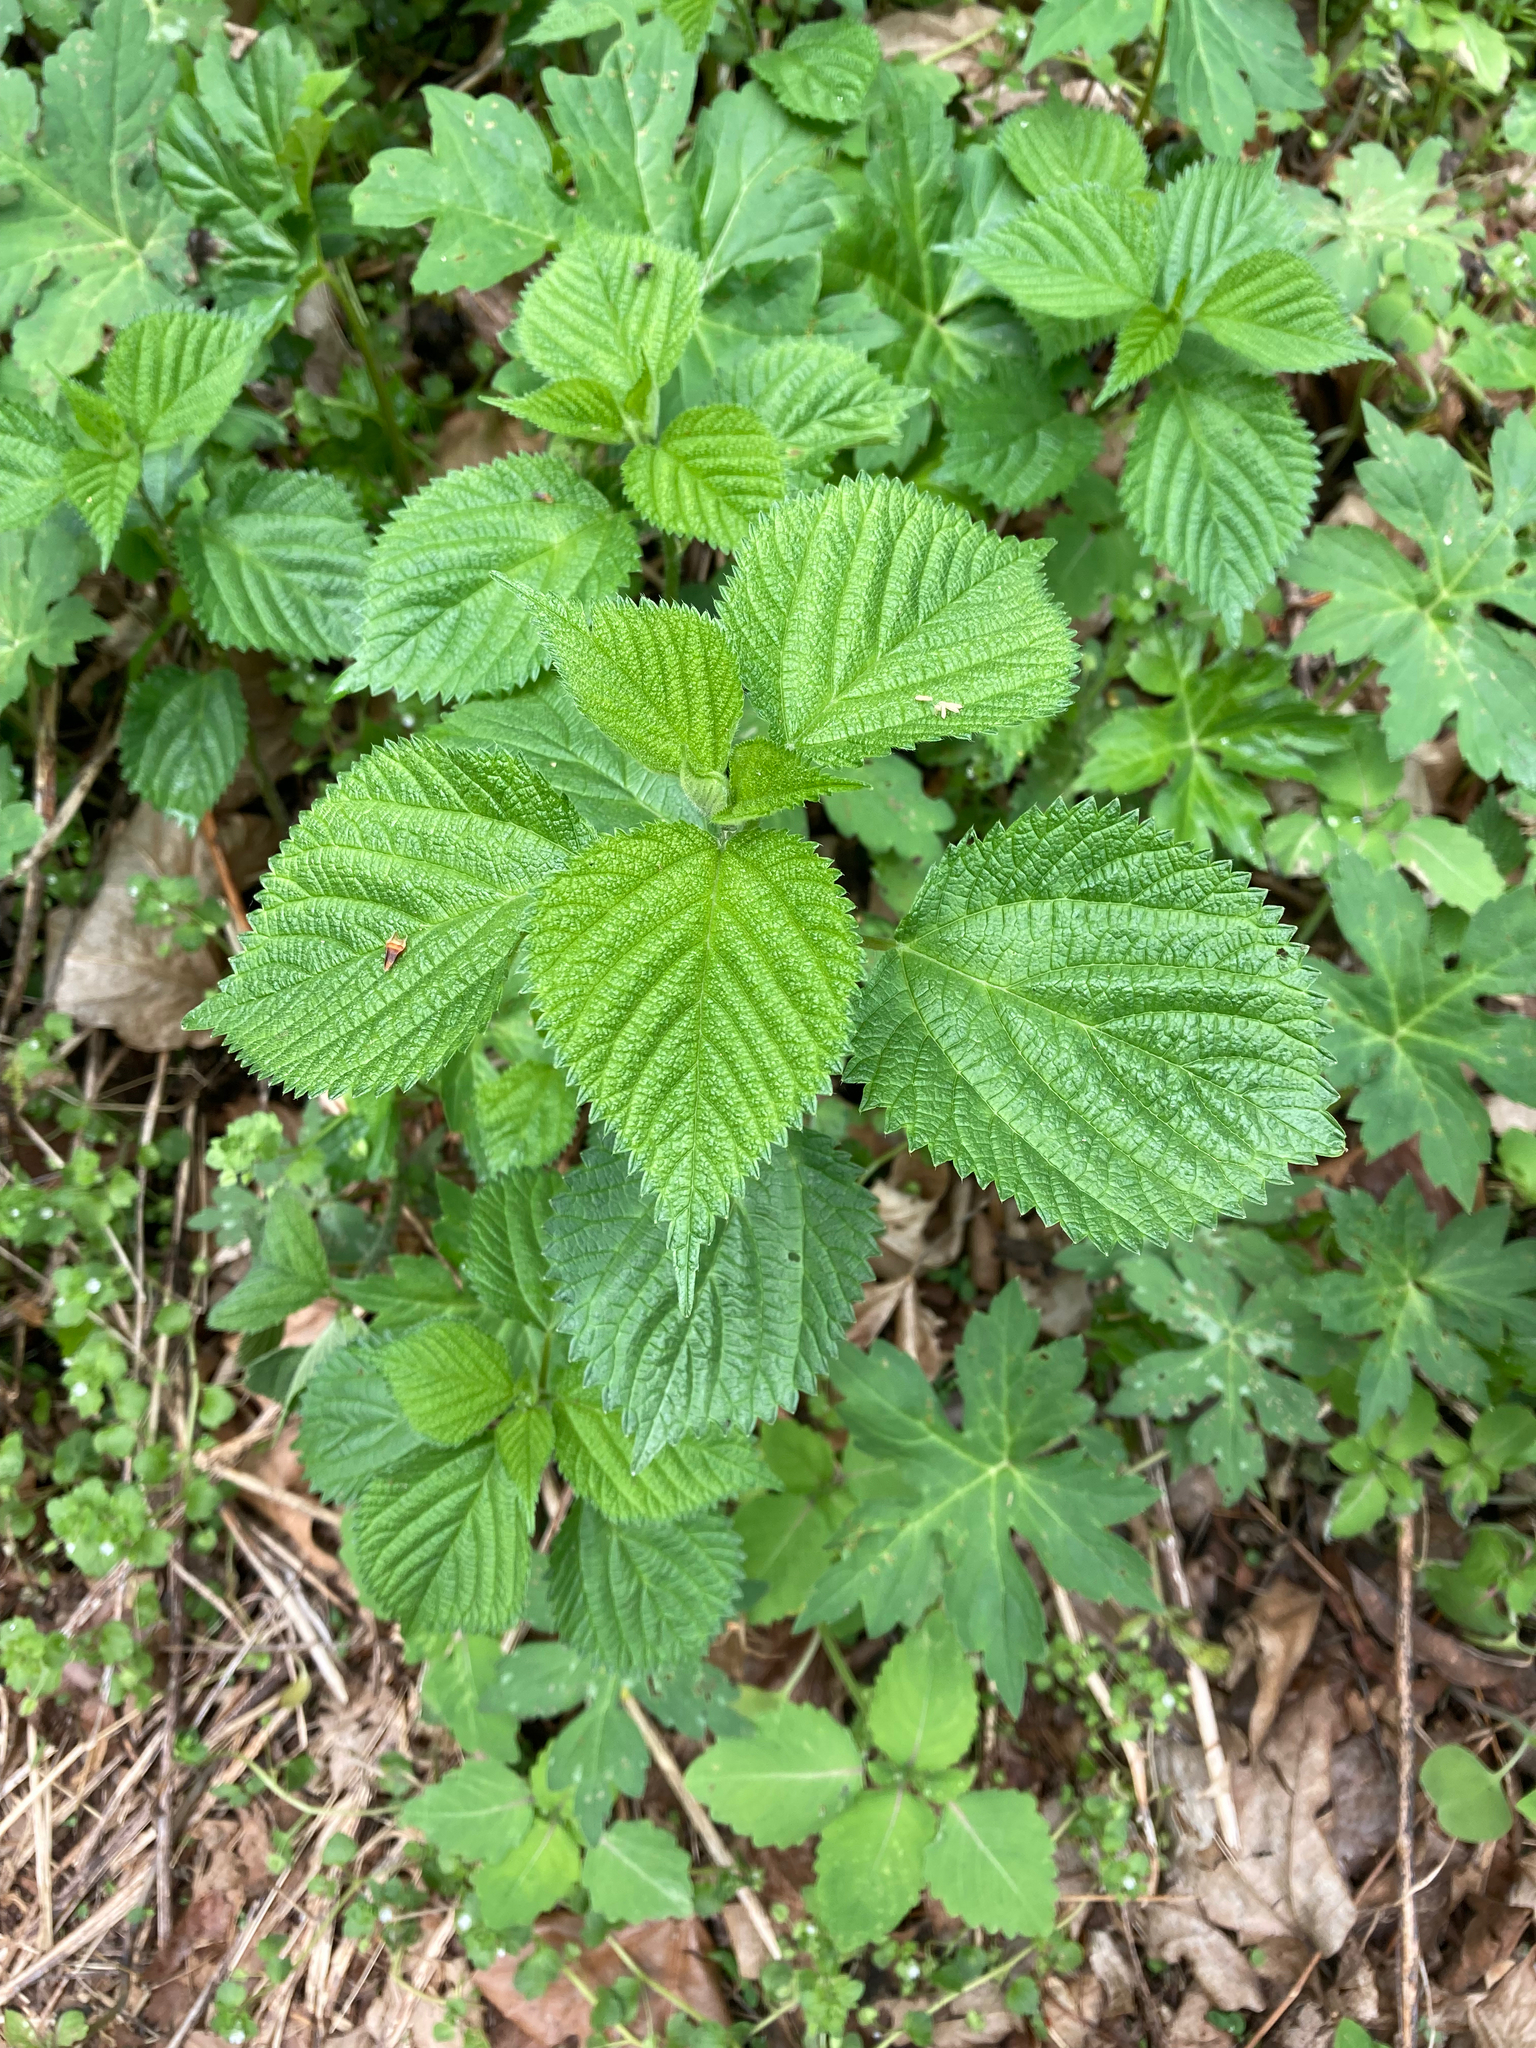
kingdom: Plantae
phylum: Tracheophyta
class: Magnoliopsida
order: Rosales
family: Urticaceae
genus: Laportea
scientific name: Laportea canadensis
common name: Canada nettle
